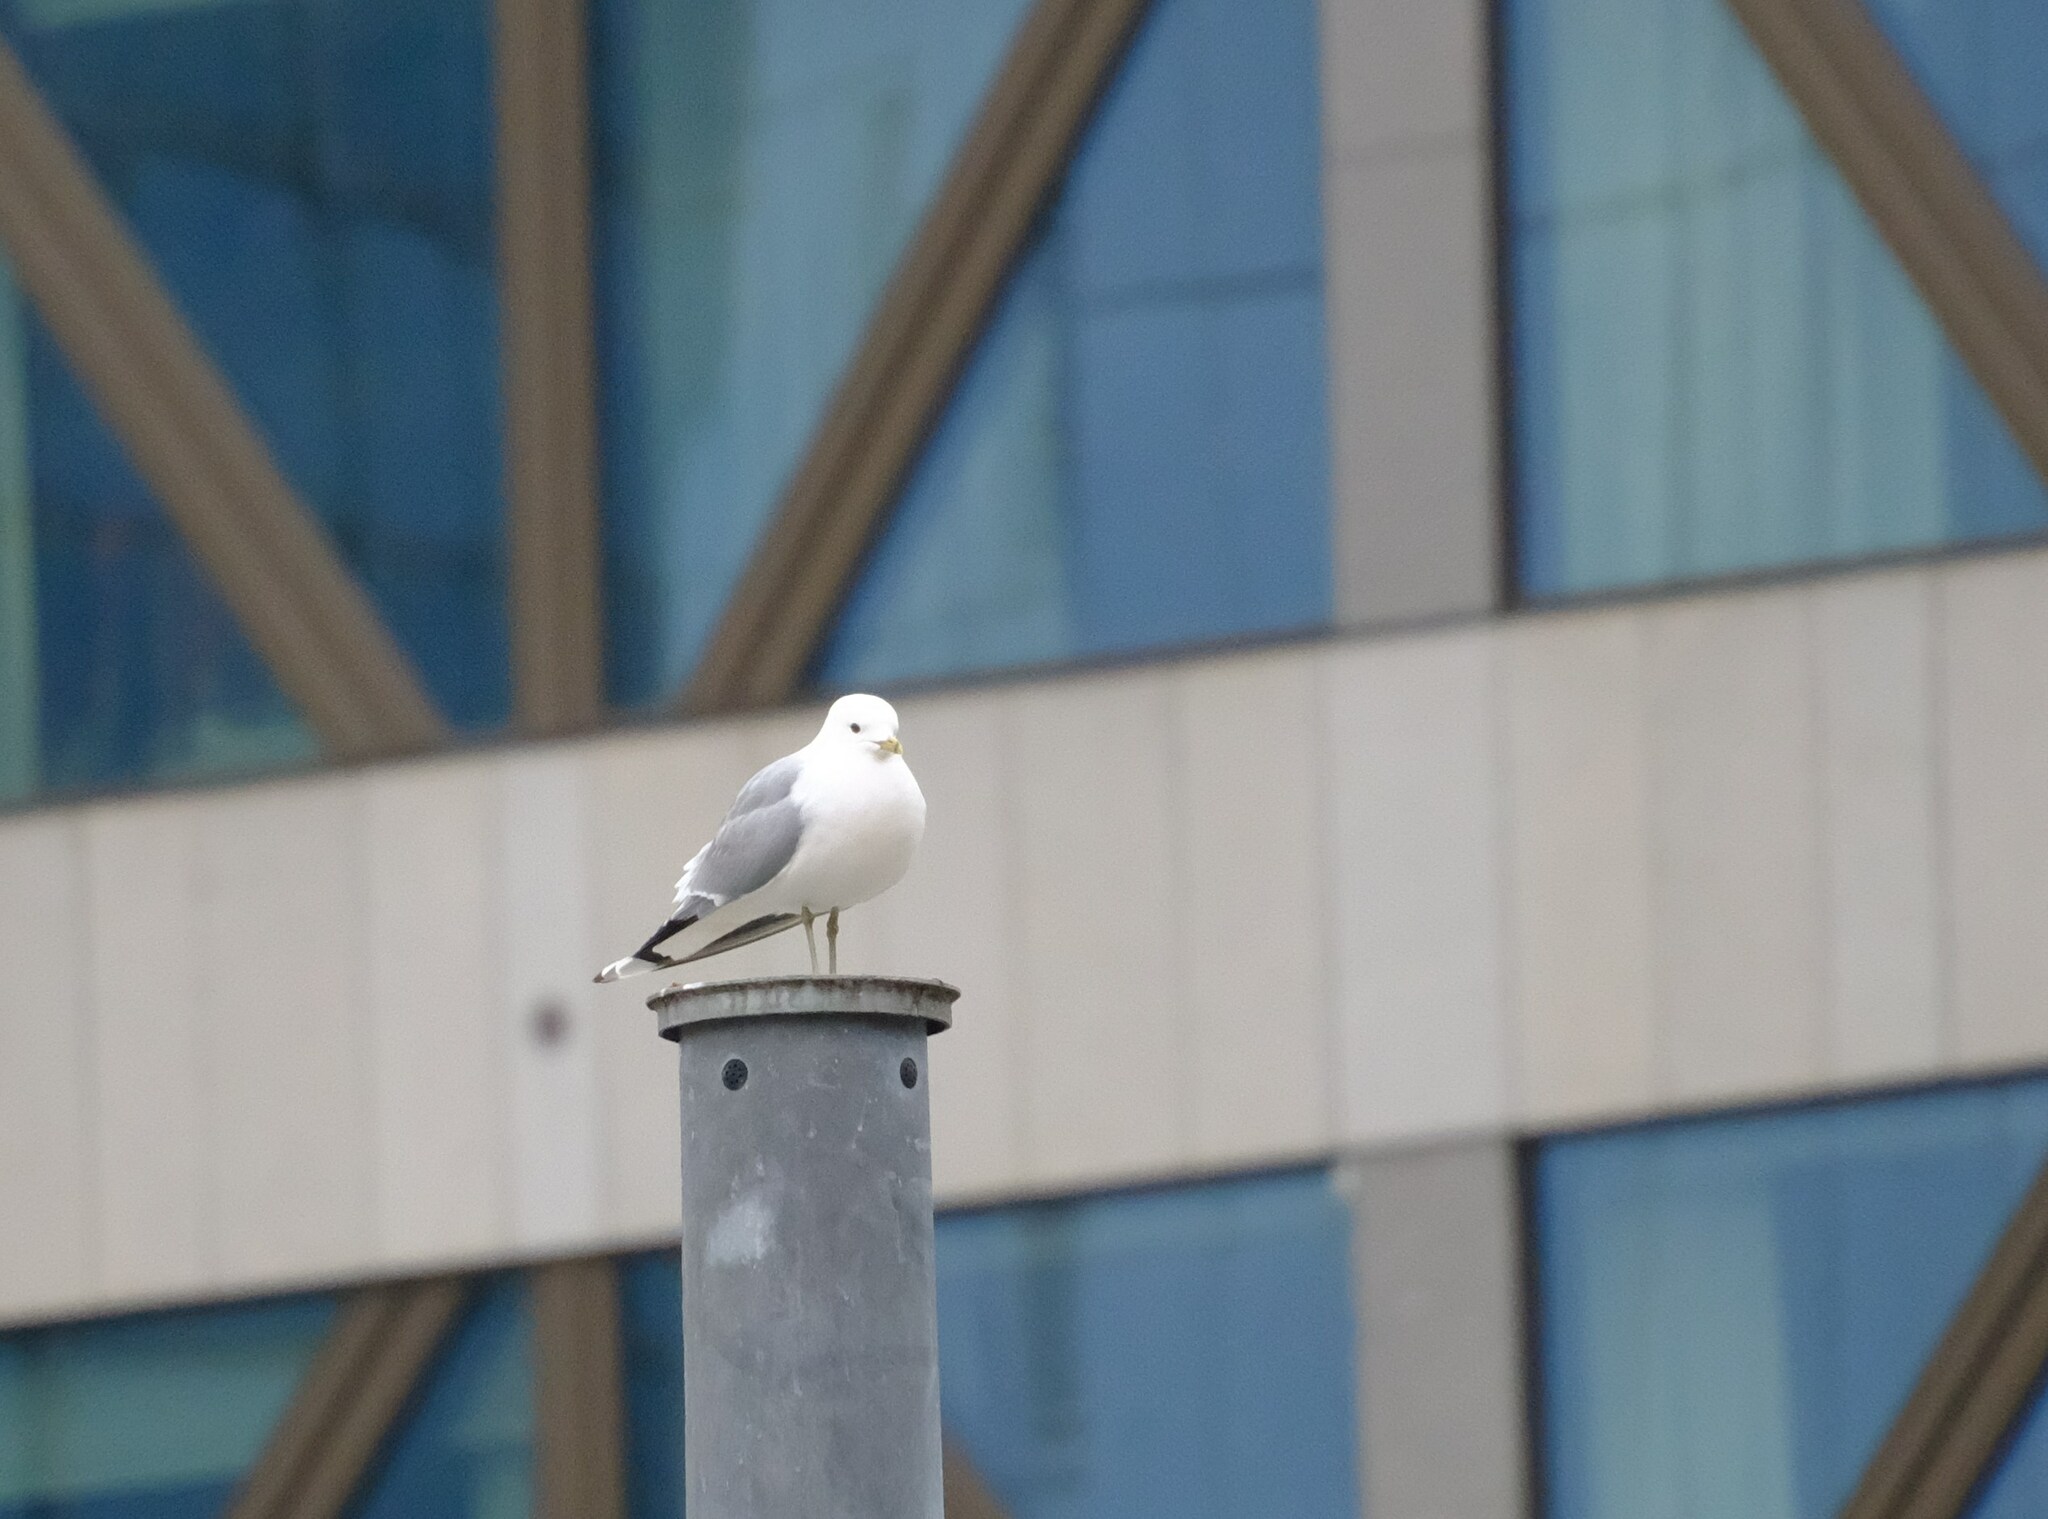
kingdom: Animalia
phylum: Chordata
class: Aves
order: Charadriiformes
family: Laridae
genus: Larus
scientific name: Larus canus
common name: Mew gull
